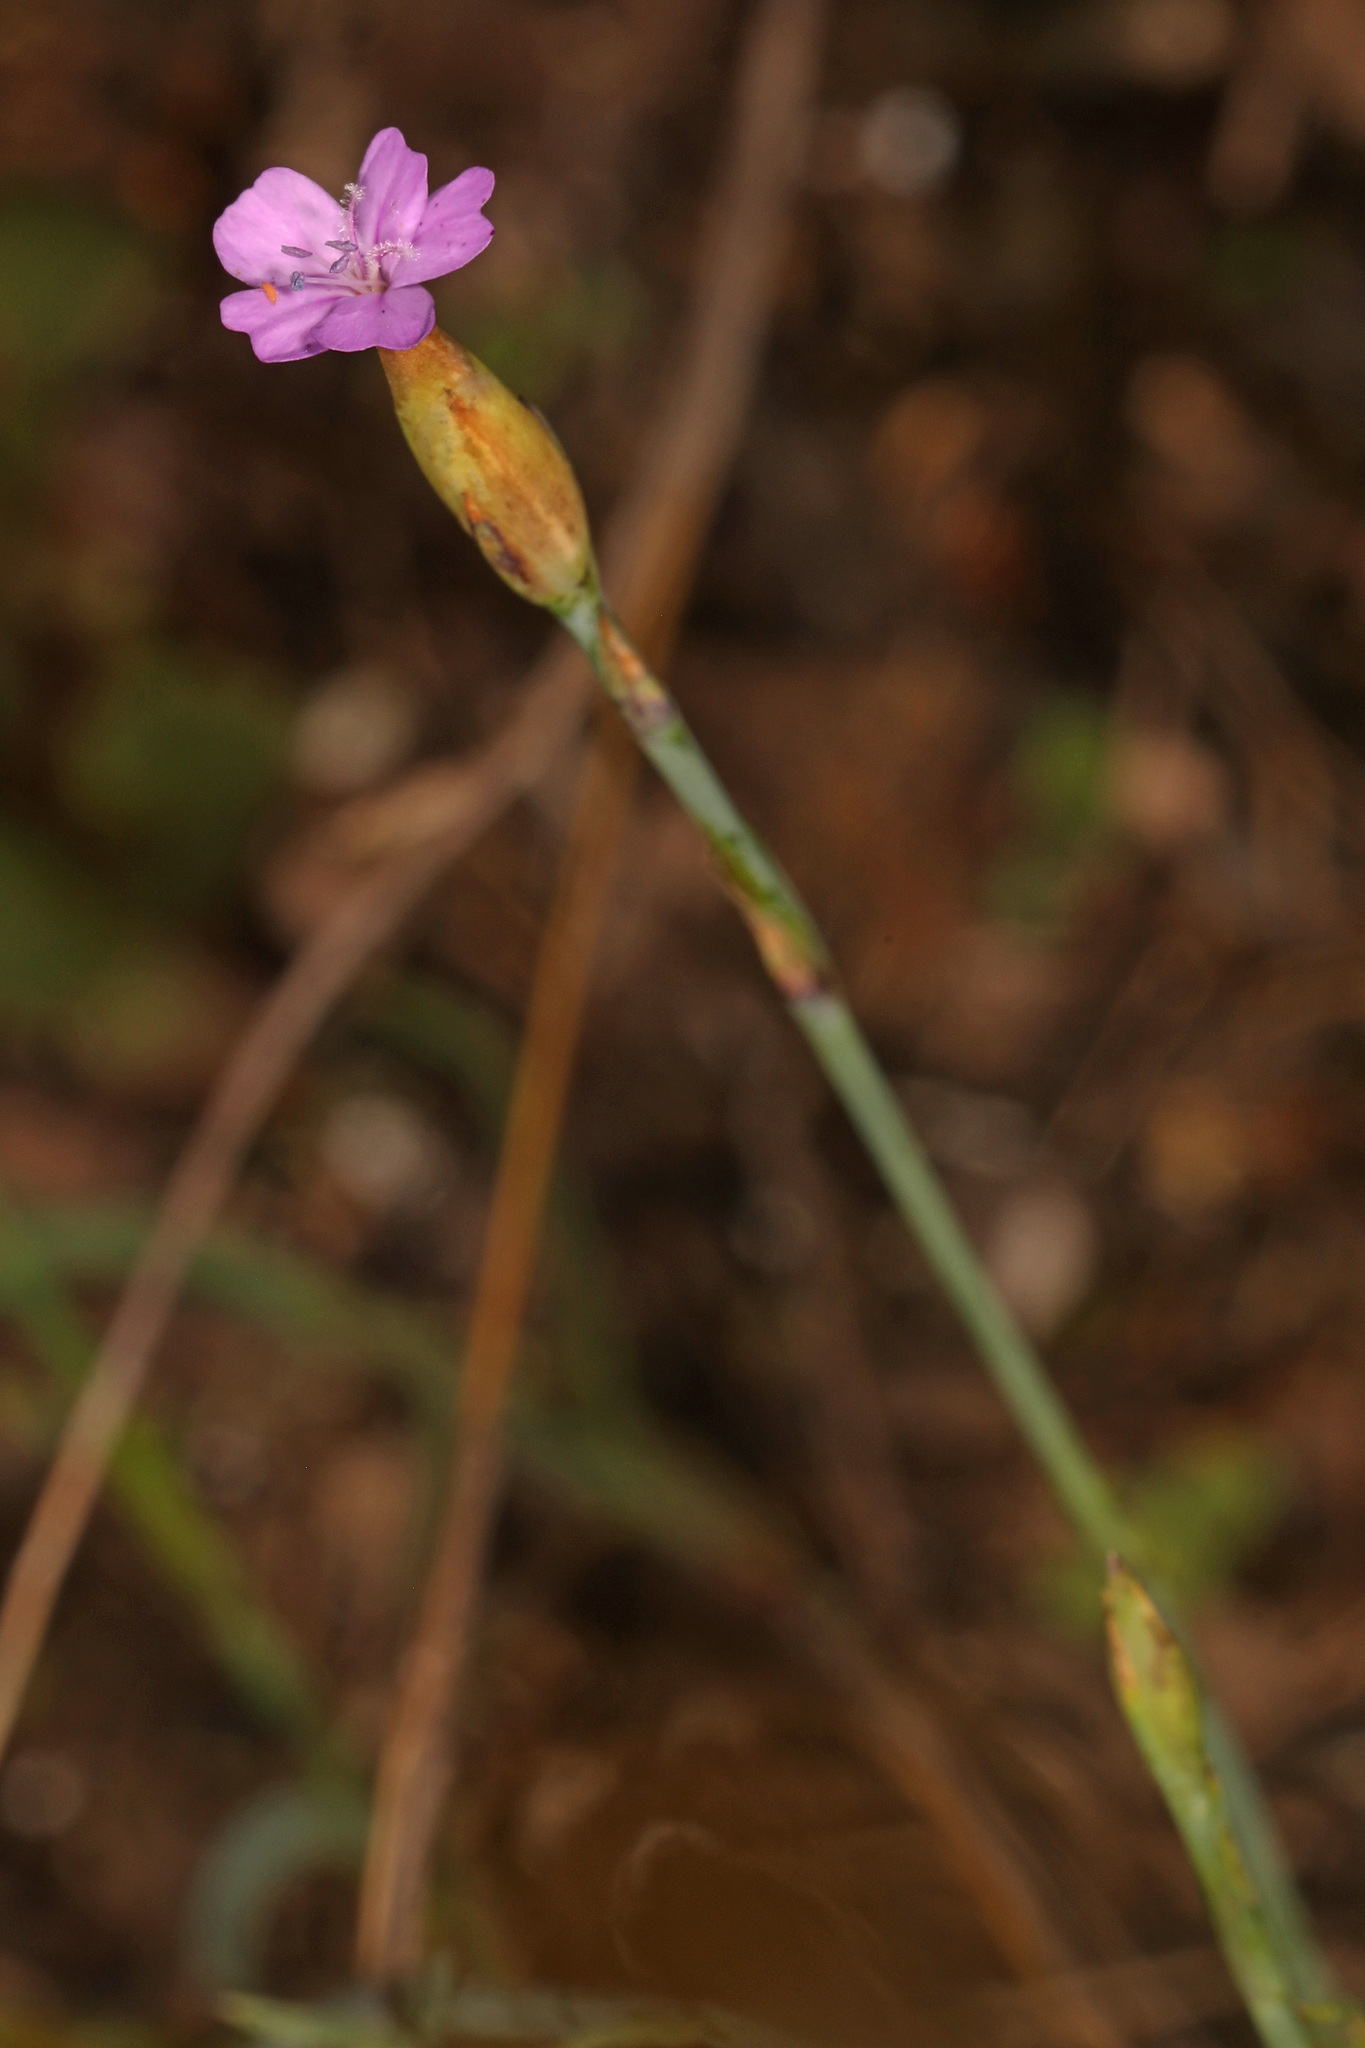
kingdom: Plantae
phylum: Tracheophyta
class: Magnoliopsida
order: Caryophyllales
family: Caryophyllaceae
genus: Petrorhagia
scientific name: Petrorhagia prolifera
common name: Proliferous pink
